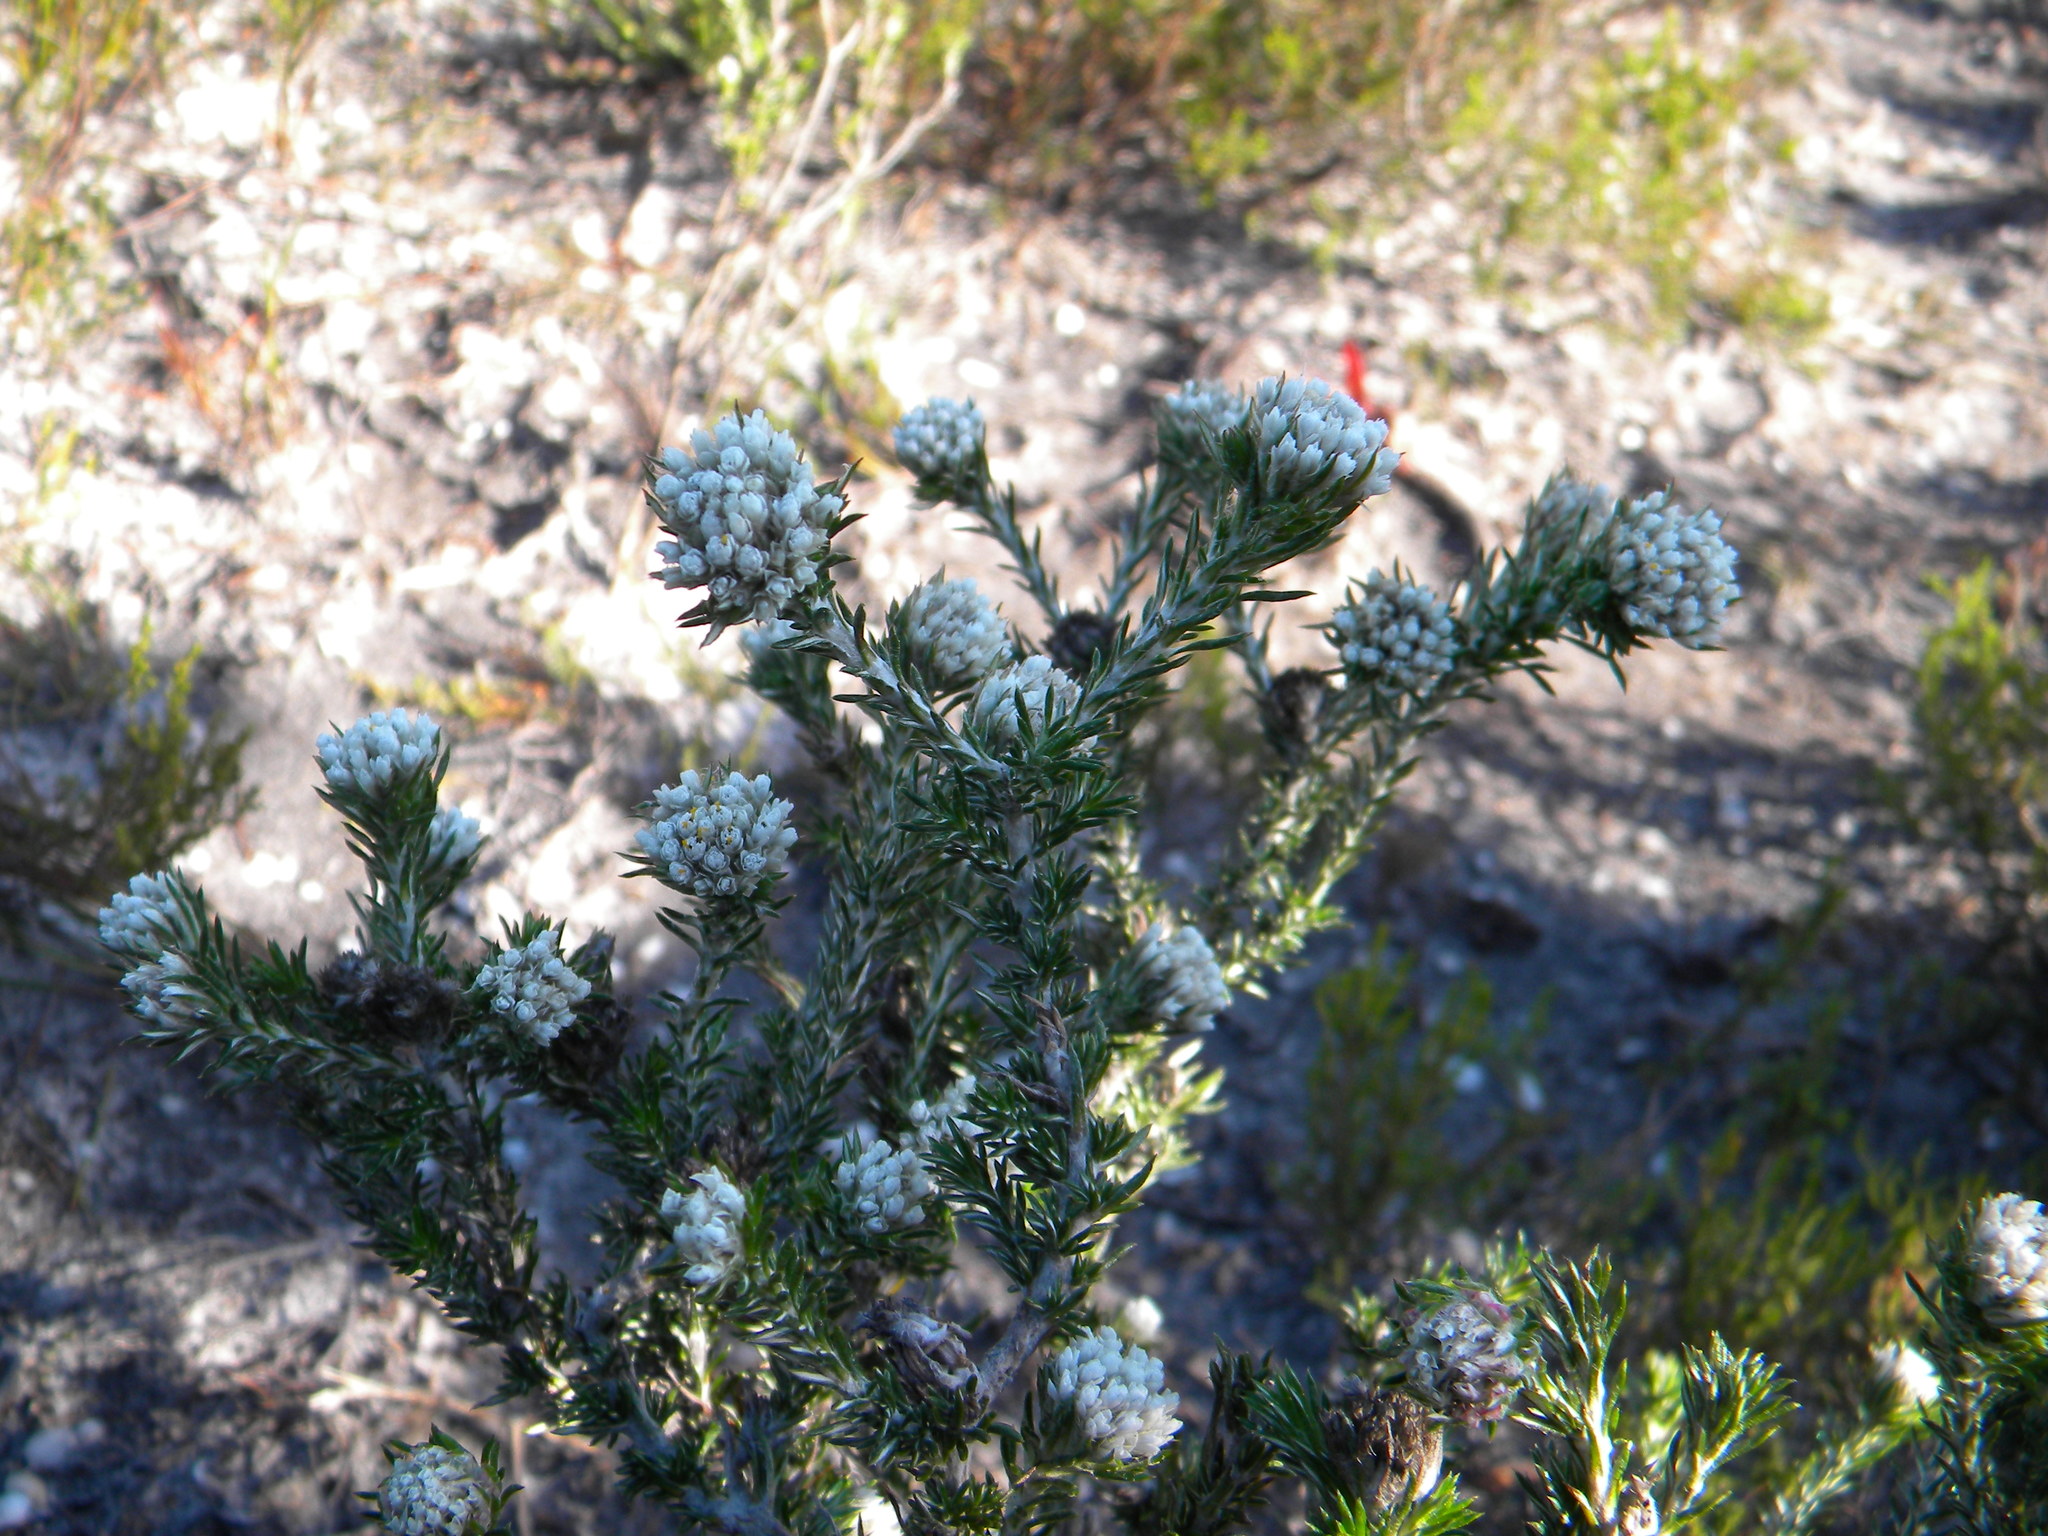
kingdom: Plantae
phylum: Tracheophyta
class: Magnoliopsida
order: Asterales
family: Asteraceae
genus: Metalasia
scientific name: Metalasia compacta
